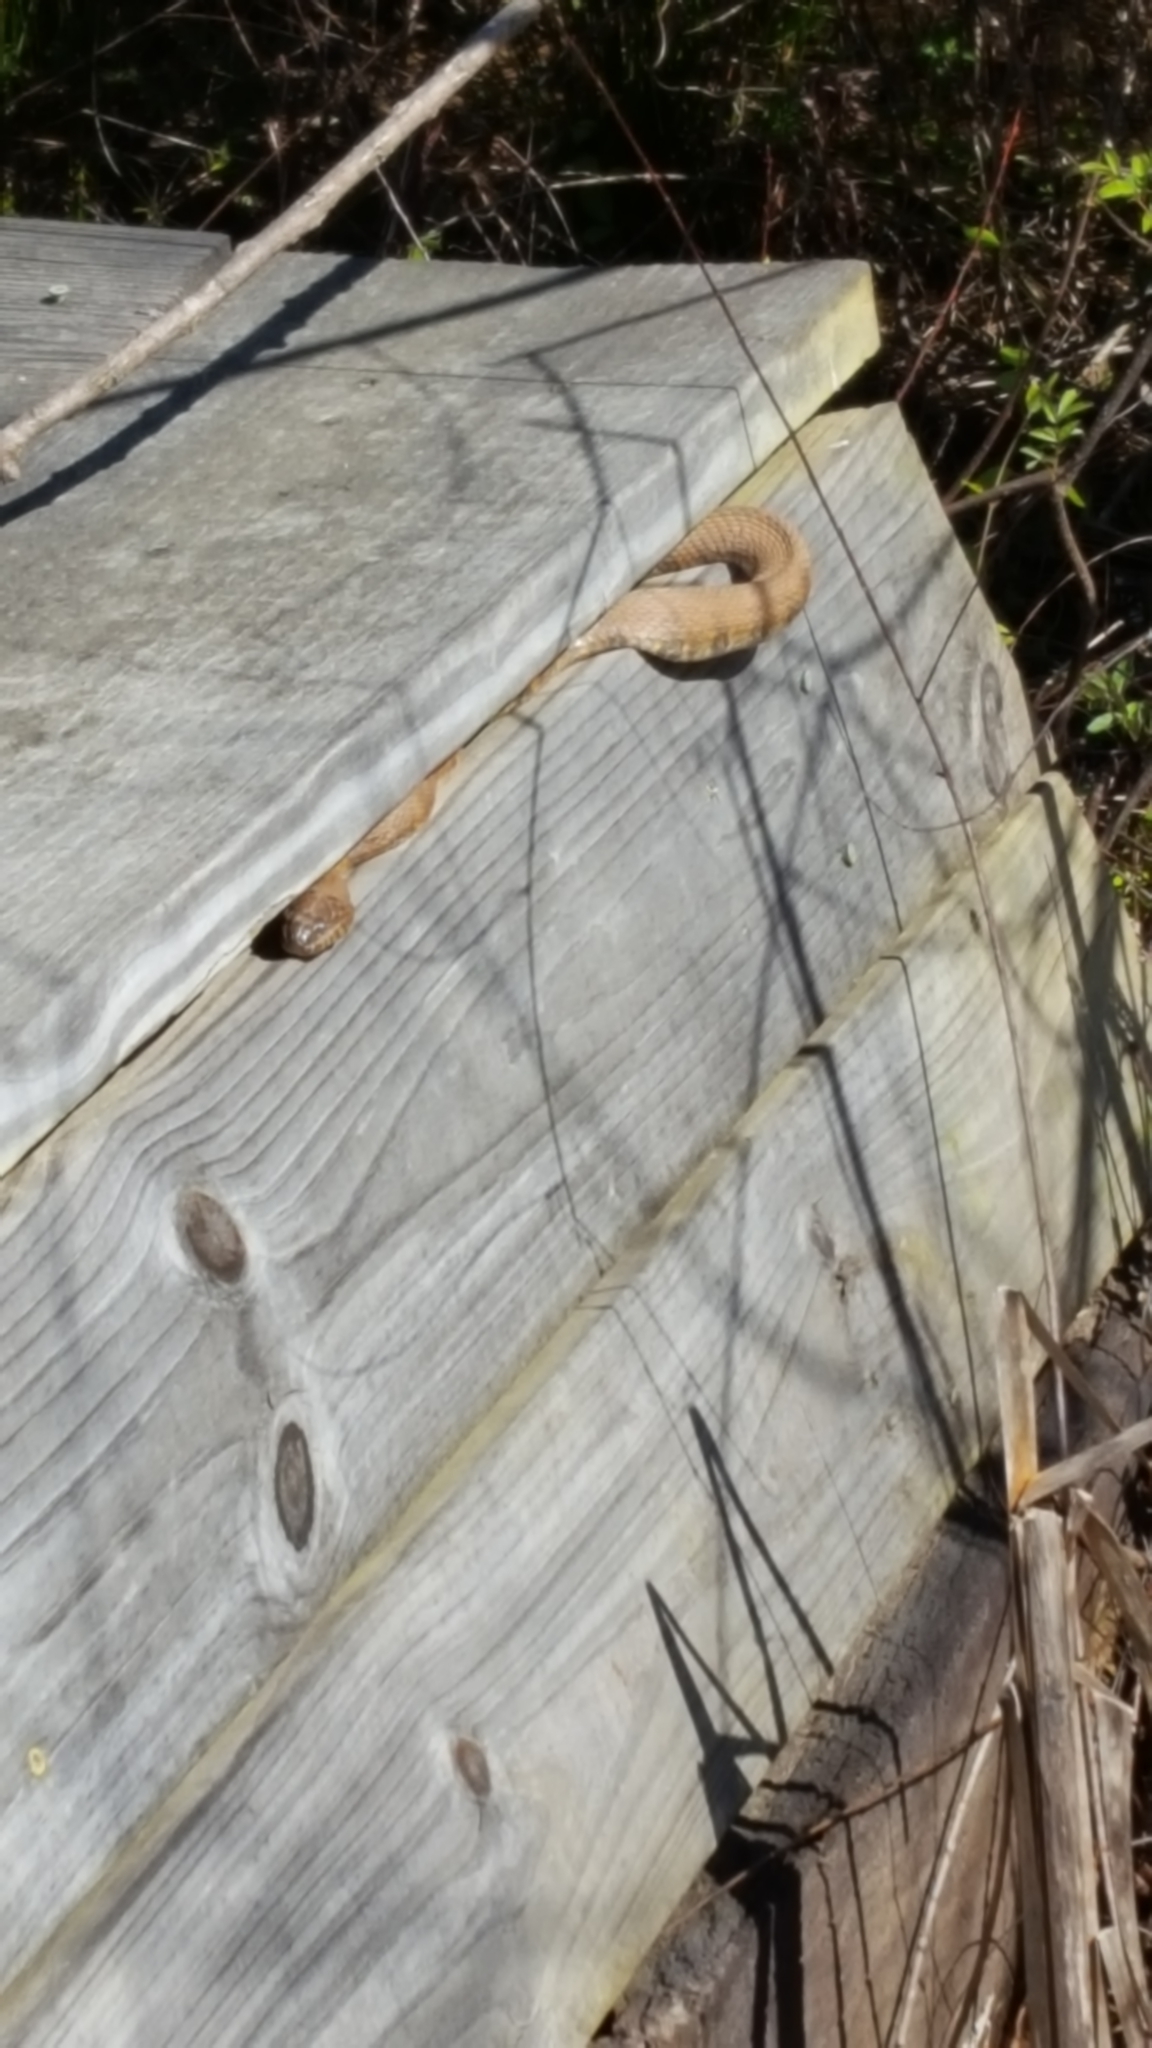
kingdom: Animalia
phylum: Chordata
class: Squamata
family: Colubridae
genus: Nerodia
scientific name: Nerodia sipedon
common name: Northern water snake
